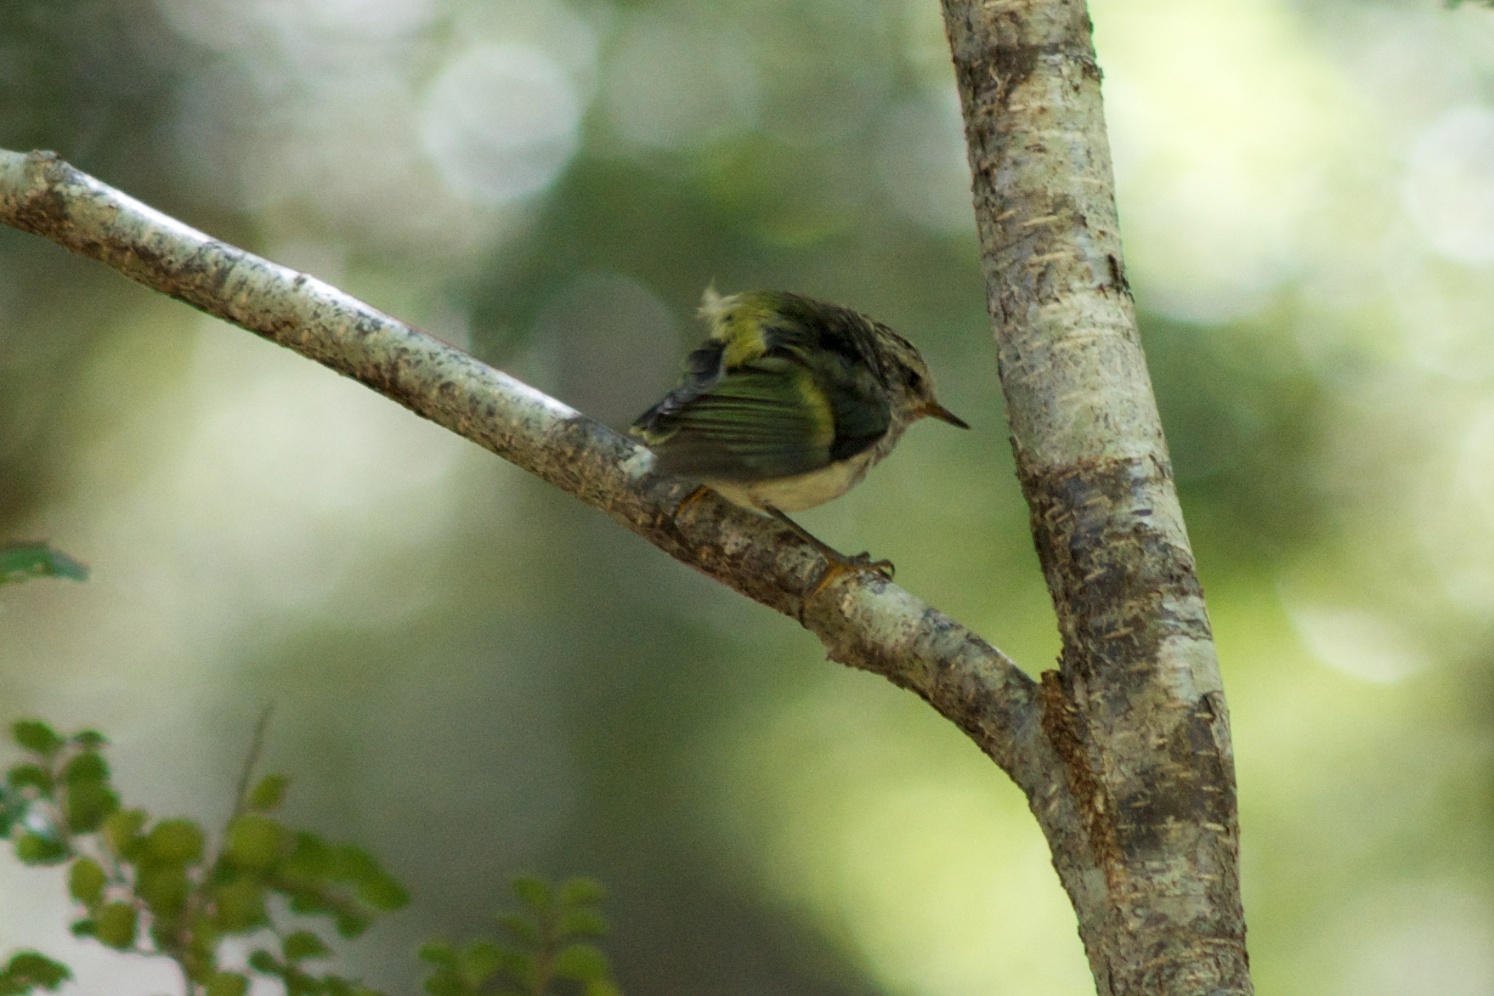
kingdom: Animalia
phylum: Chordata
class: Aves
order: Passeriformes
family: Acanthisittidae
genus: Acanthisitta
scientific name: Acanthisitta chloris
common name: Rifleman
